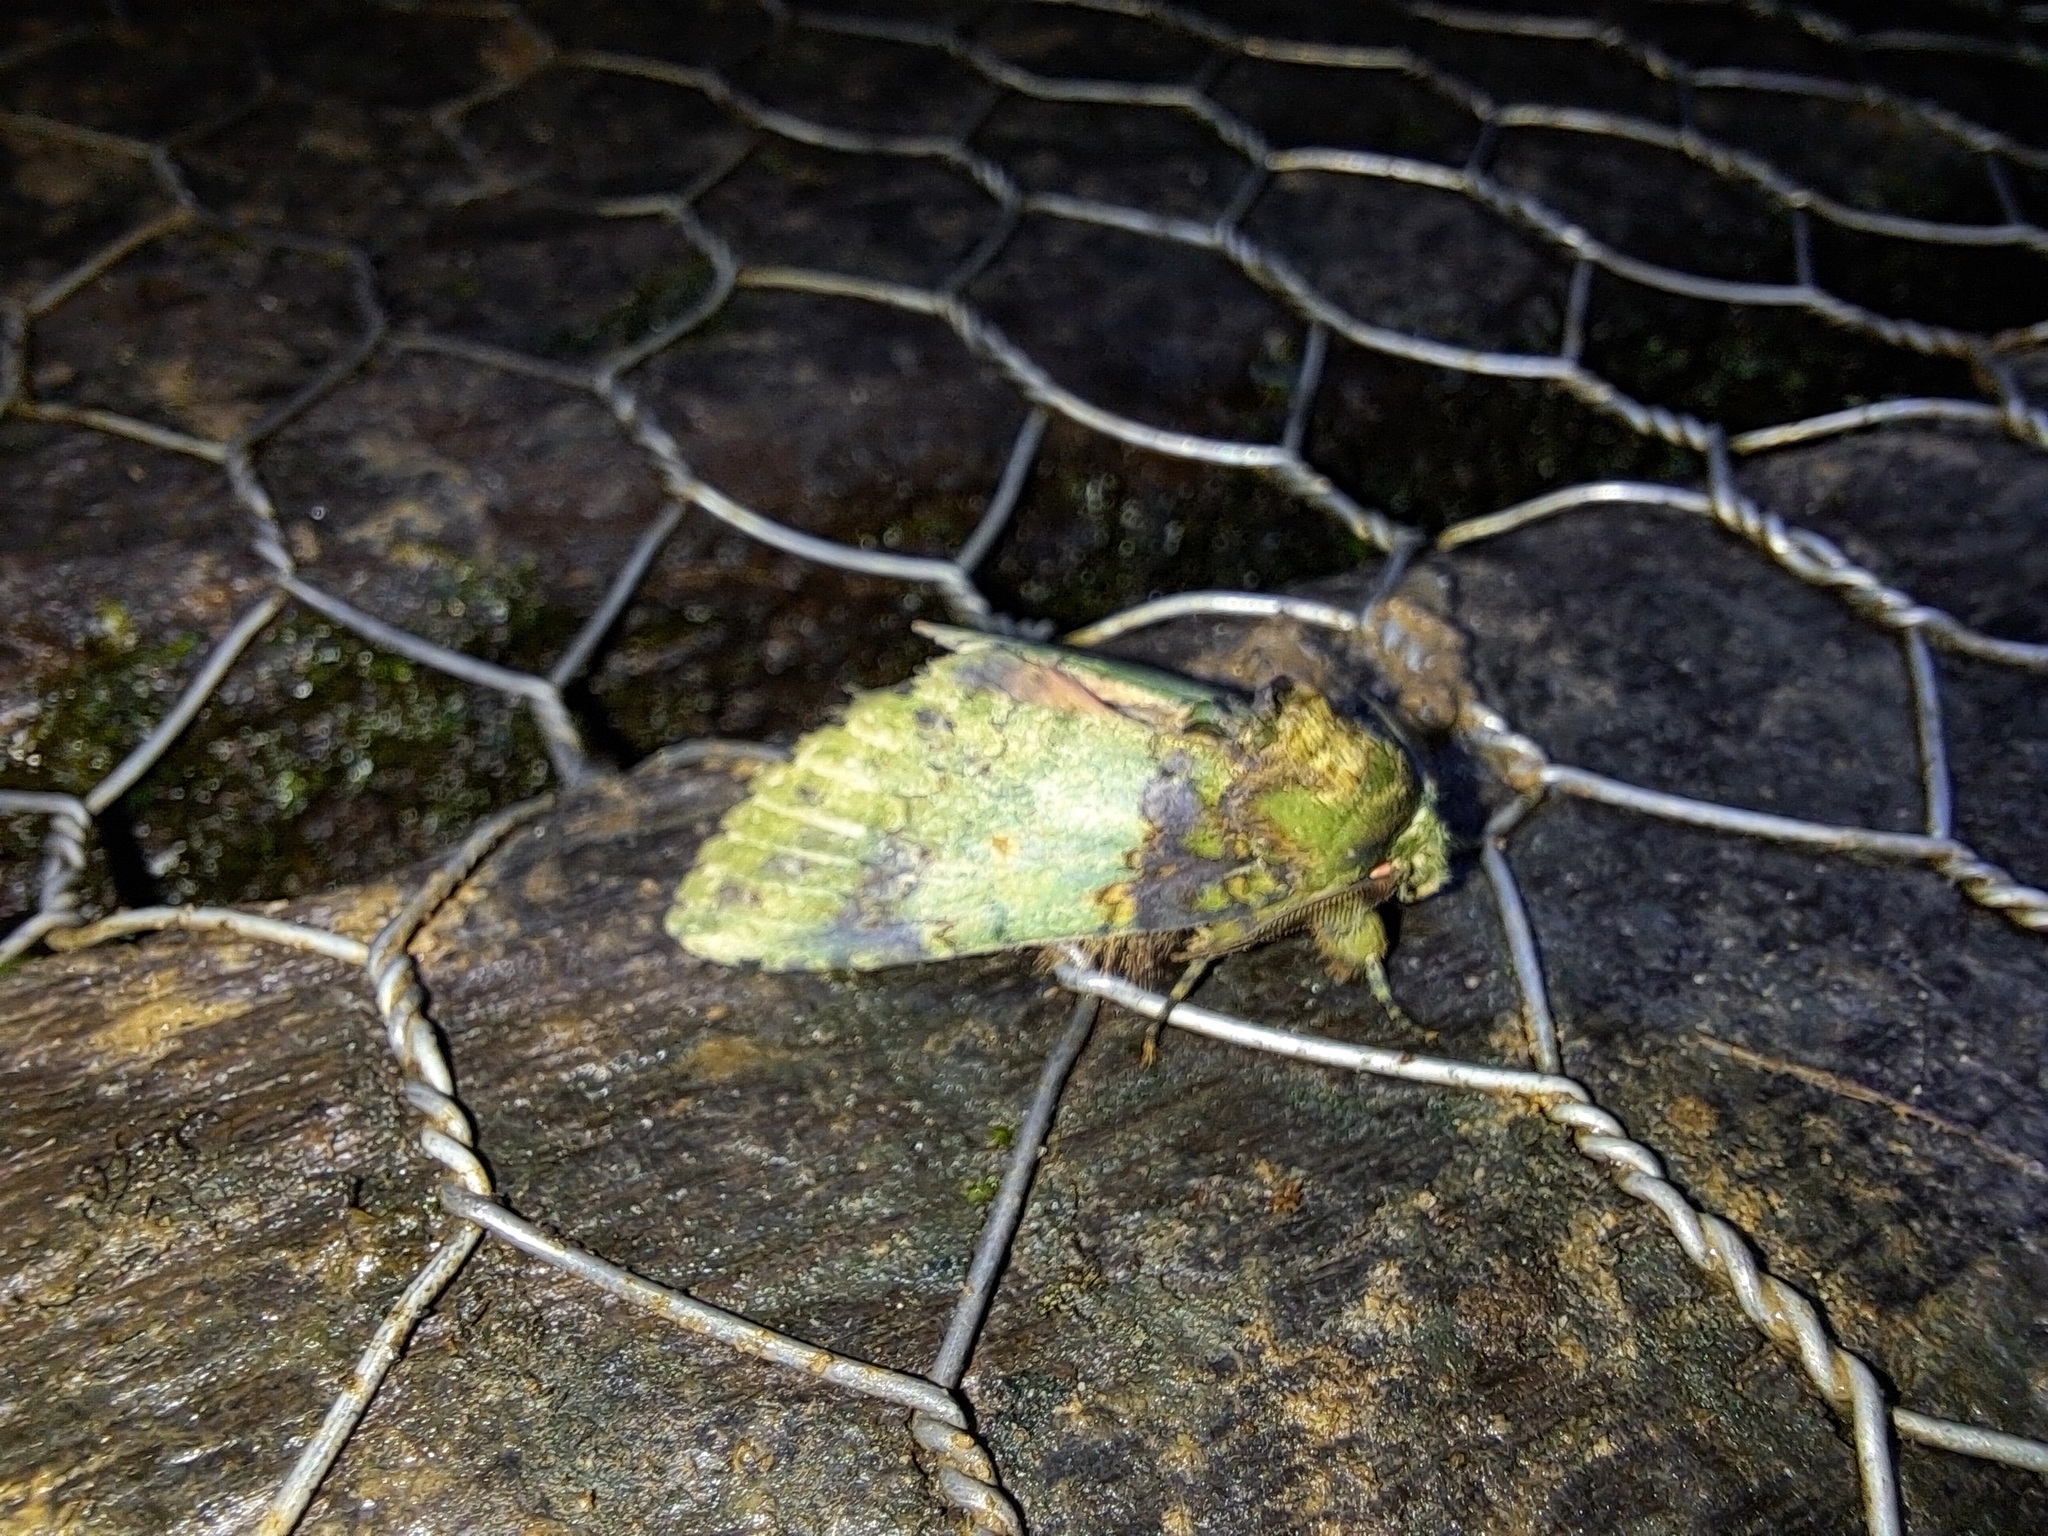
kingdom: Animalia
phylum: Arthropoda
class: Insecta
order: Lepidoptera
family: Notodontidae
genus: Disphragis
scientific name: Disphragis meretricia
